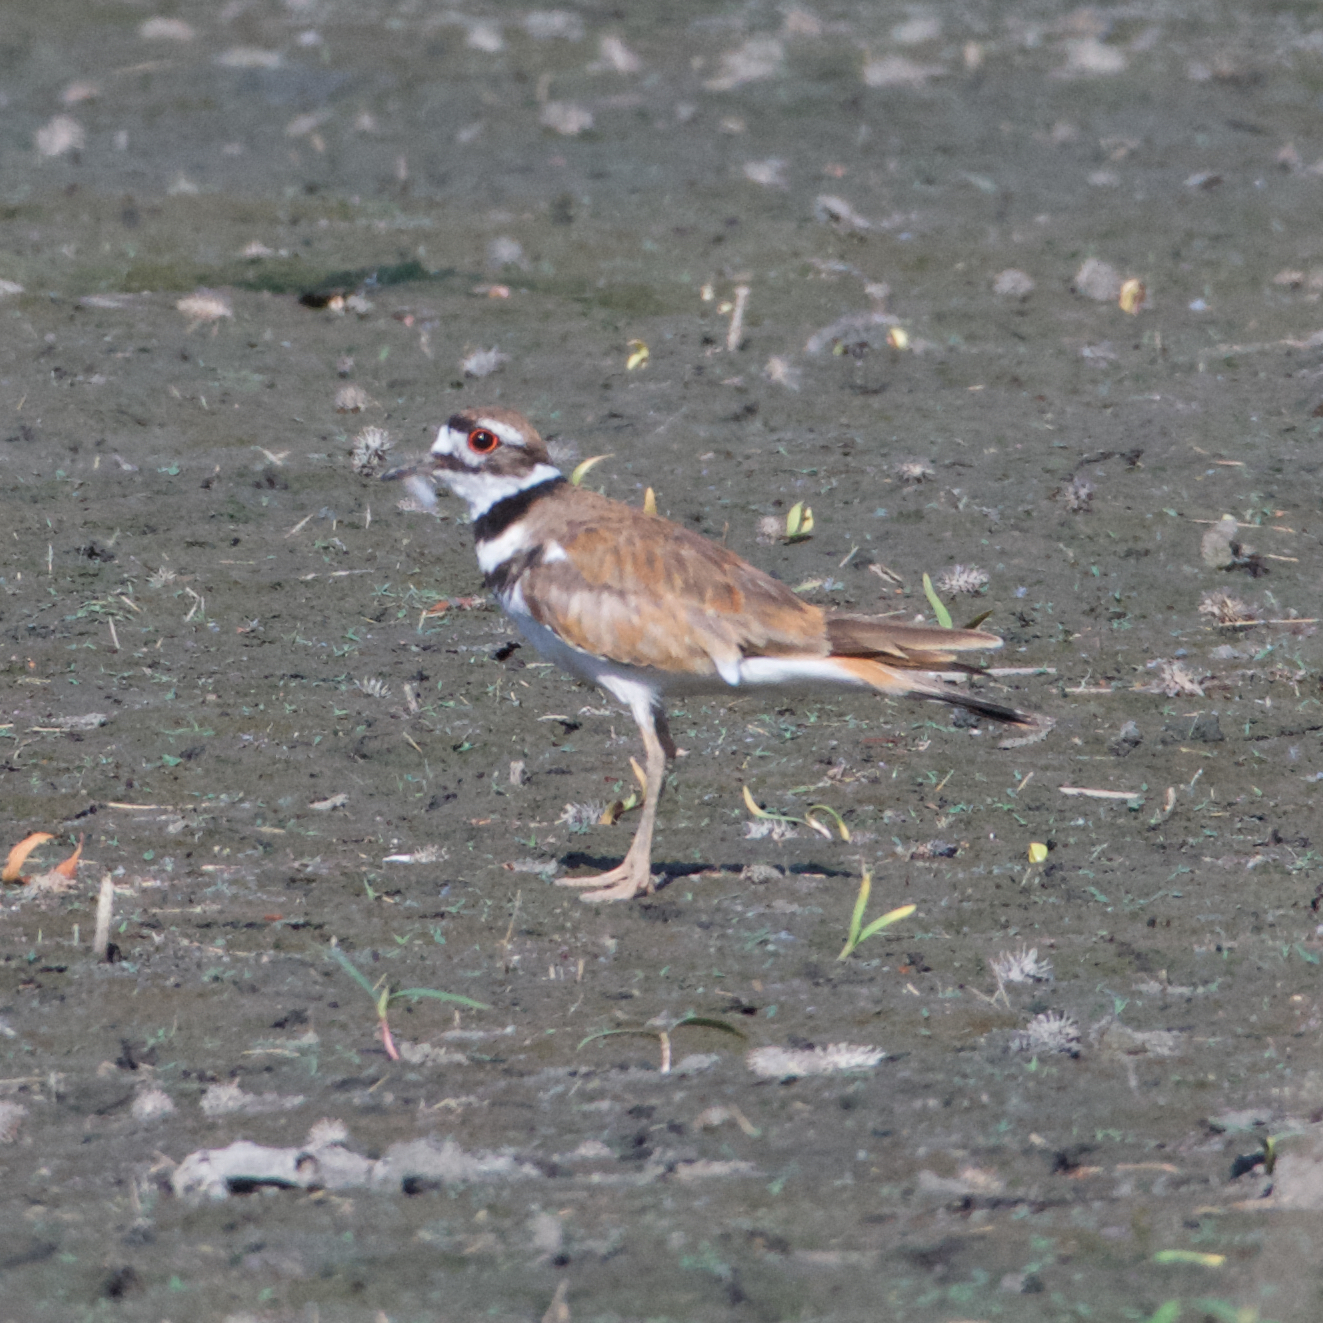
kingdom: Animalia
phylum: Chordata
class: Aves
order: Charadriiformes
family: Charadriidae
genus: Charadrius
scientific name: Charadrius vociferus
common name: Killdeer
